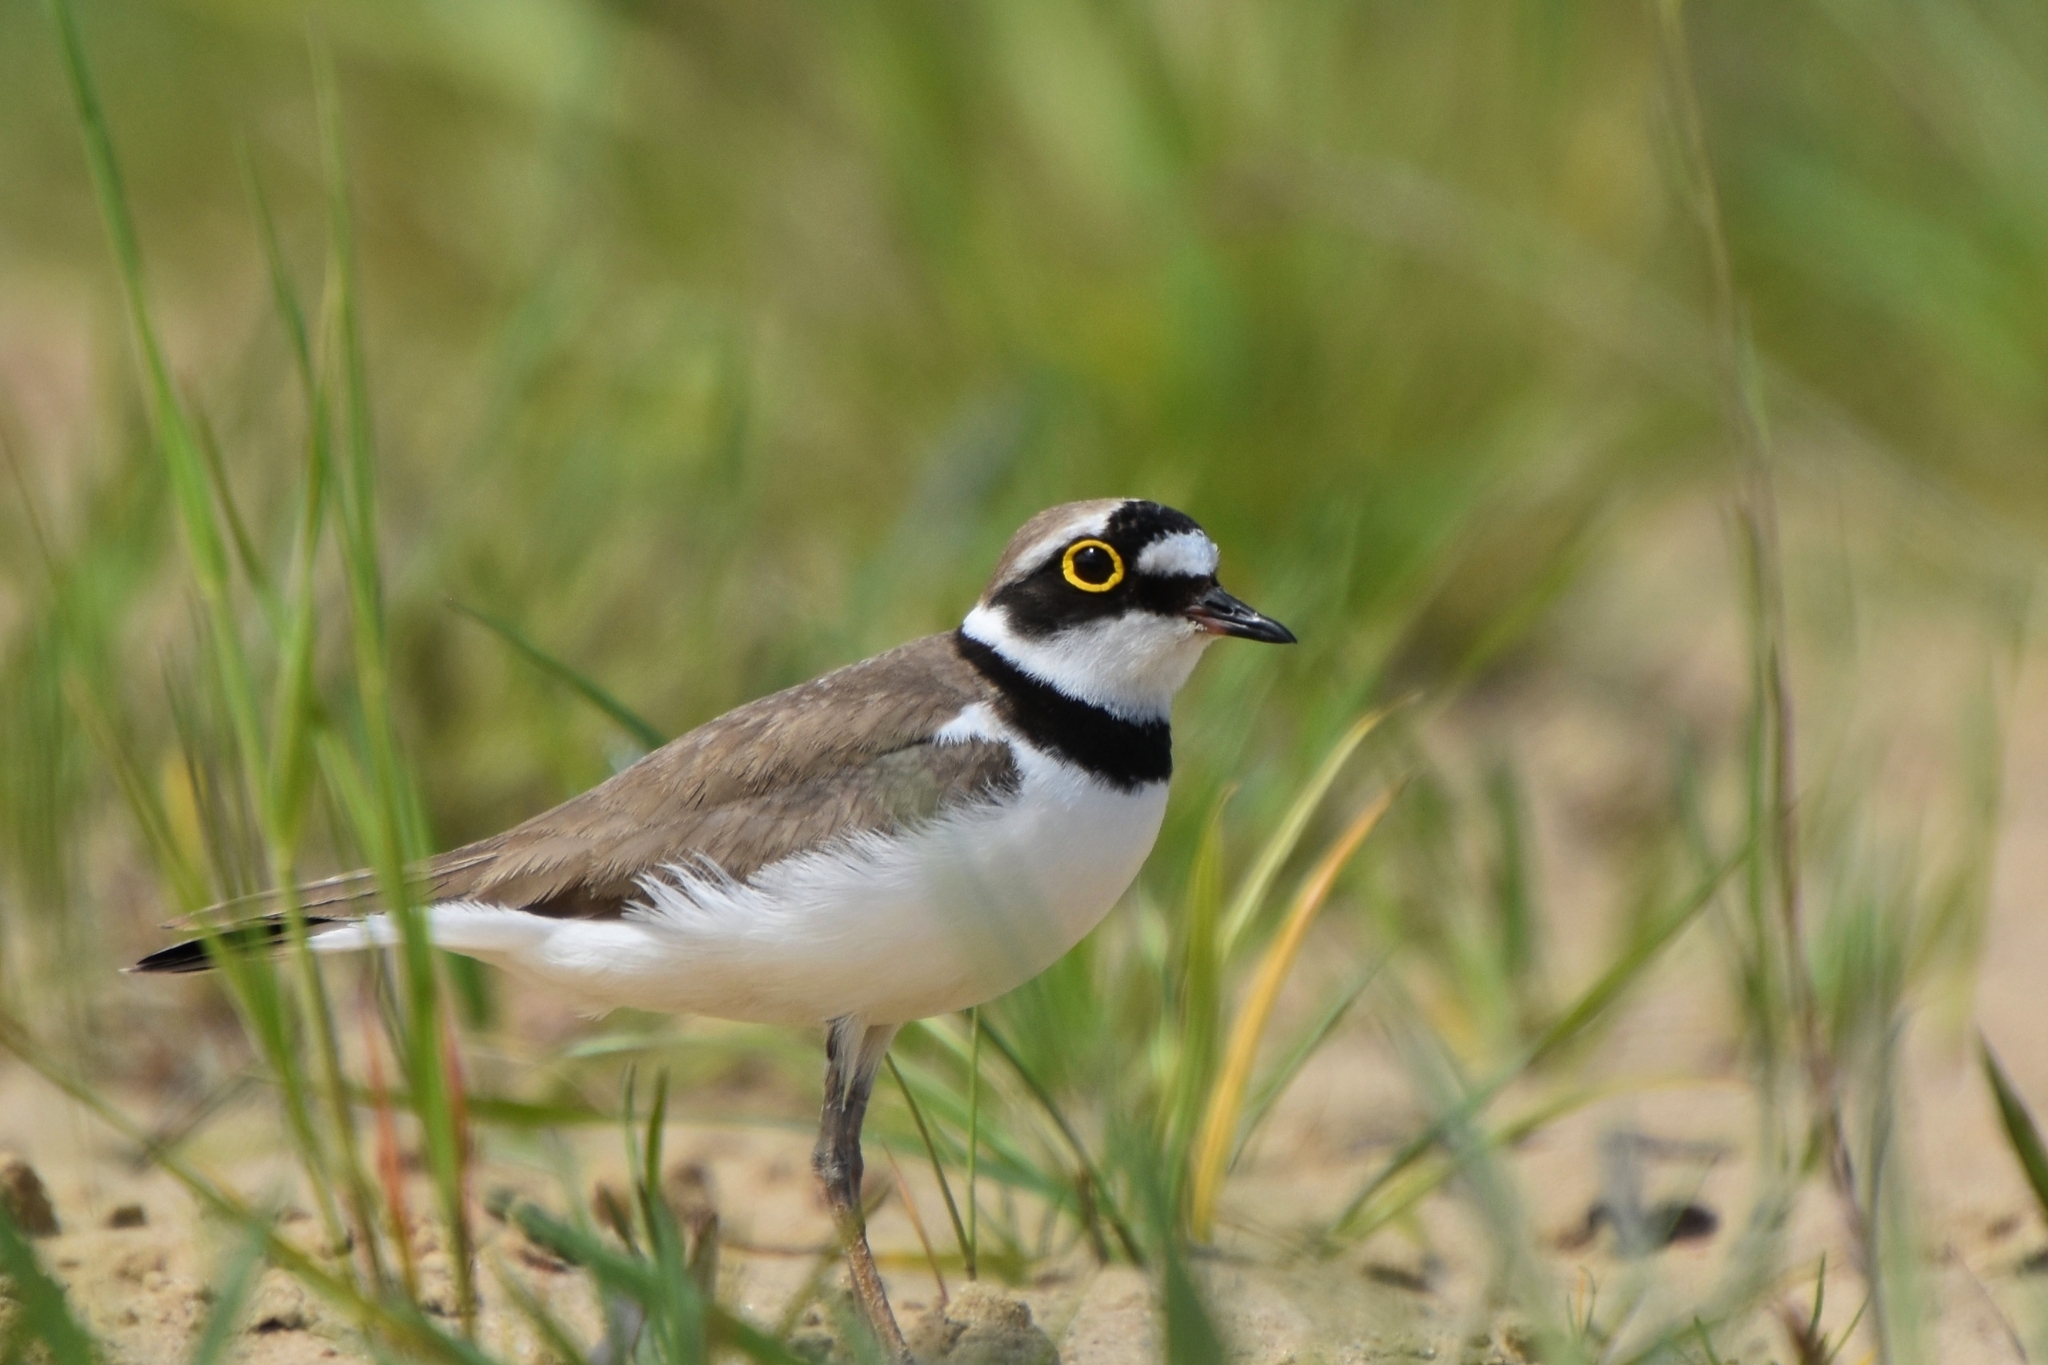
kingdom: Animalia
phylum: Chordata
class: Aves
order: Charadriiformes
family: Charadriidae
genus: Charadrius
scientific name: Charadrius dubius
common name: Little ringed plover
